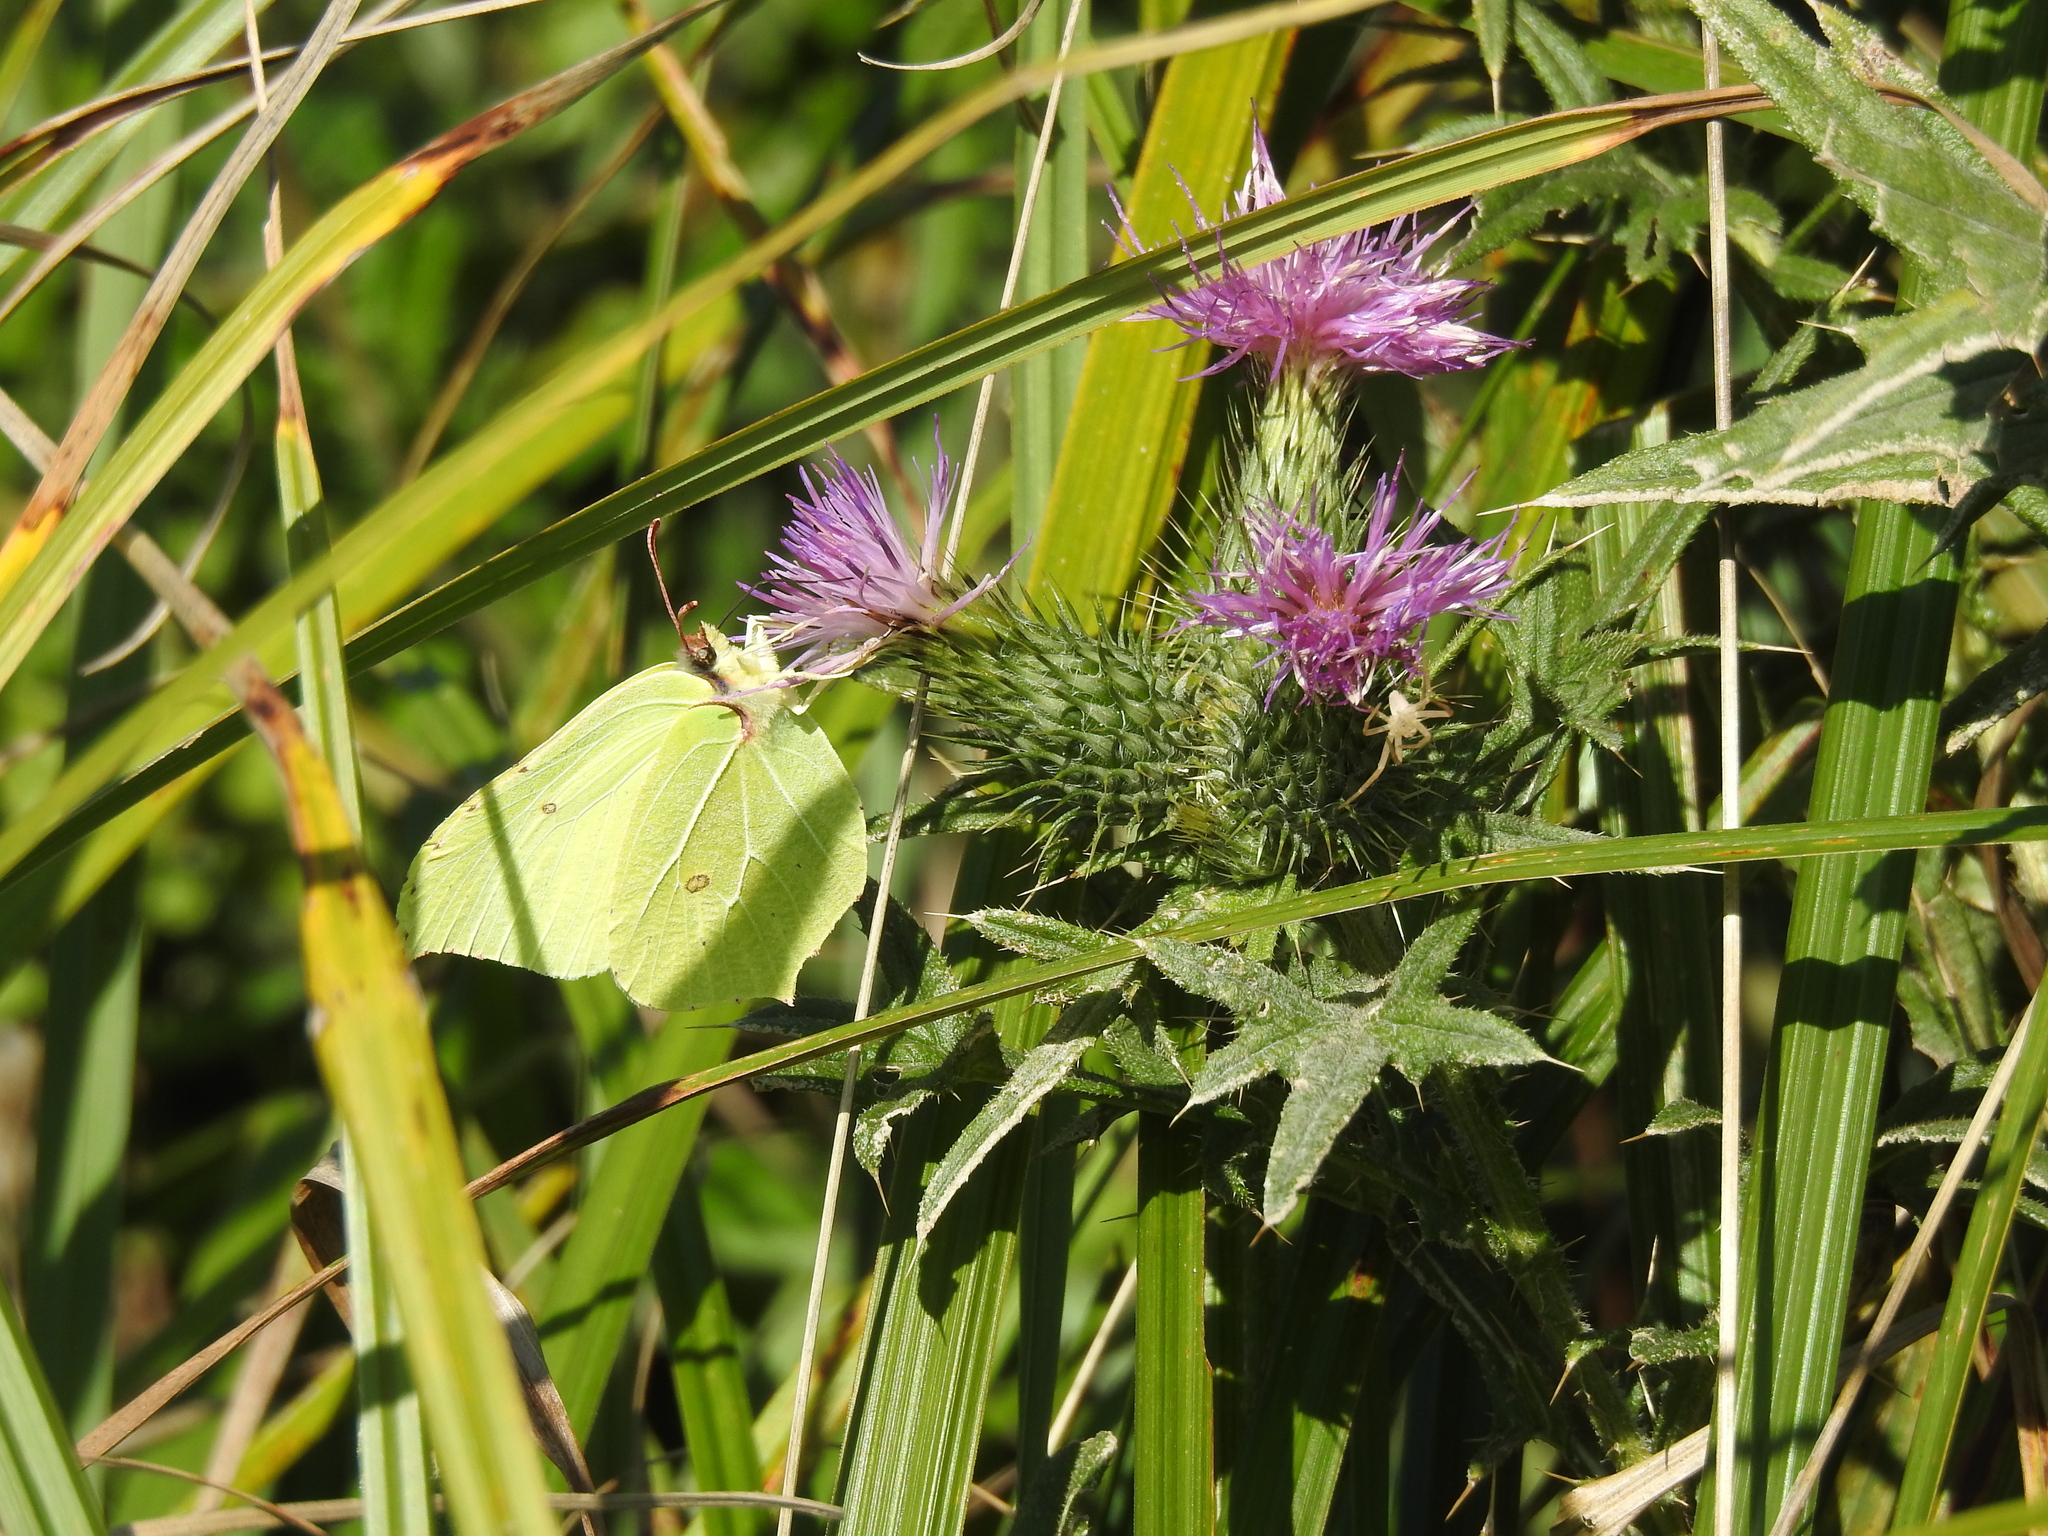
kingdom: Animalia
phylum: Arthropoda
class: Insecta
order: Lepidoptera
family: Pieridae
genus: Gonepteryx
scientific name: Gonepteryx rhamni
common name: Brimstone
